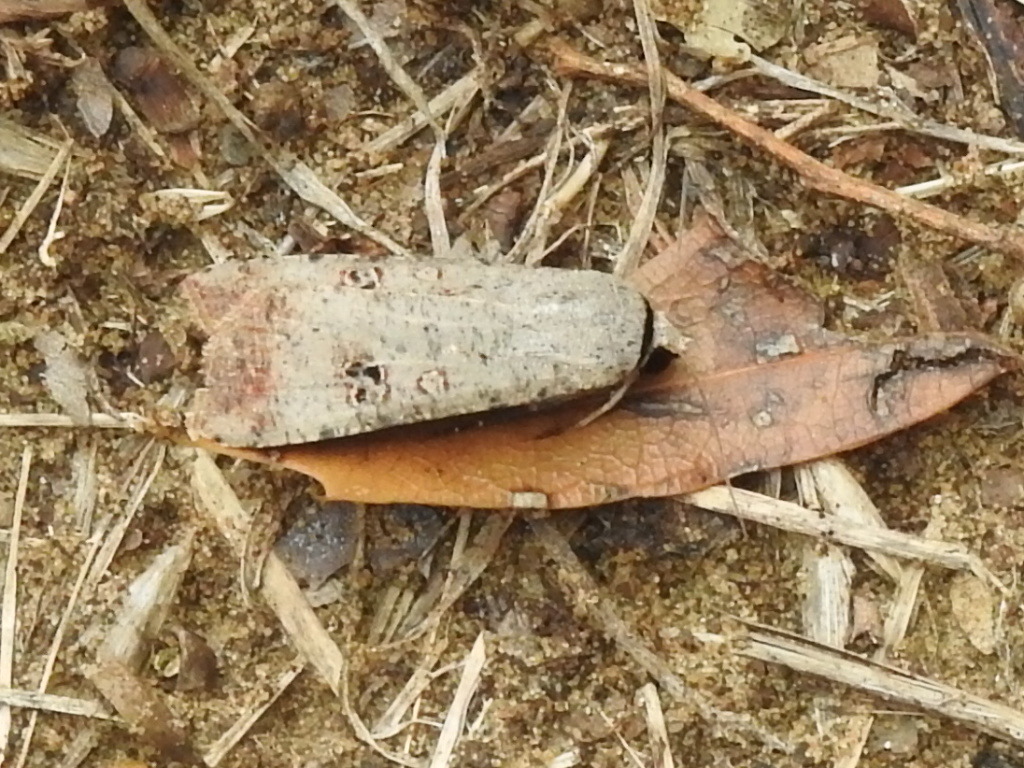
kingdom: Animalia
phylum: Arthropoda
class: Insecta
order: Lepidoptera
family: Noctuidae
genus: Anicla
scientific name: Anicla infecta
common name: Green cutworm
